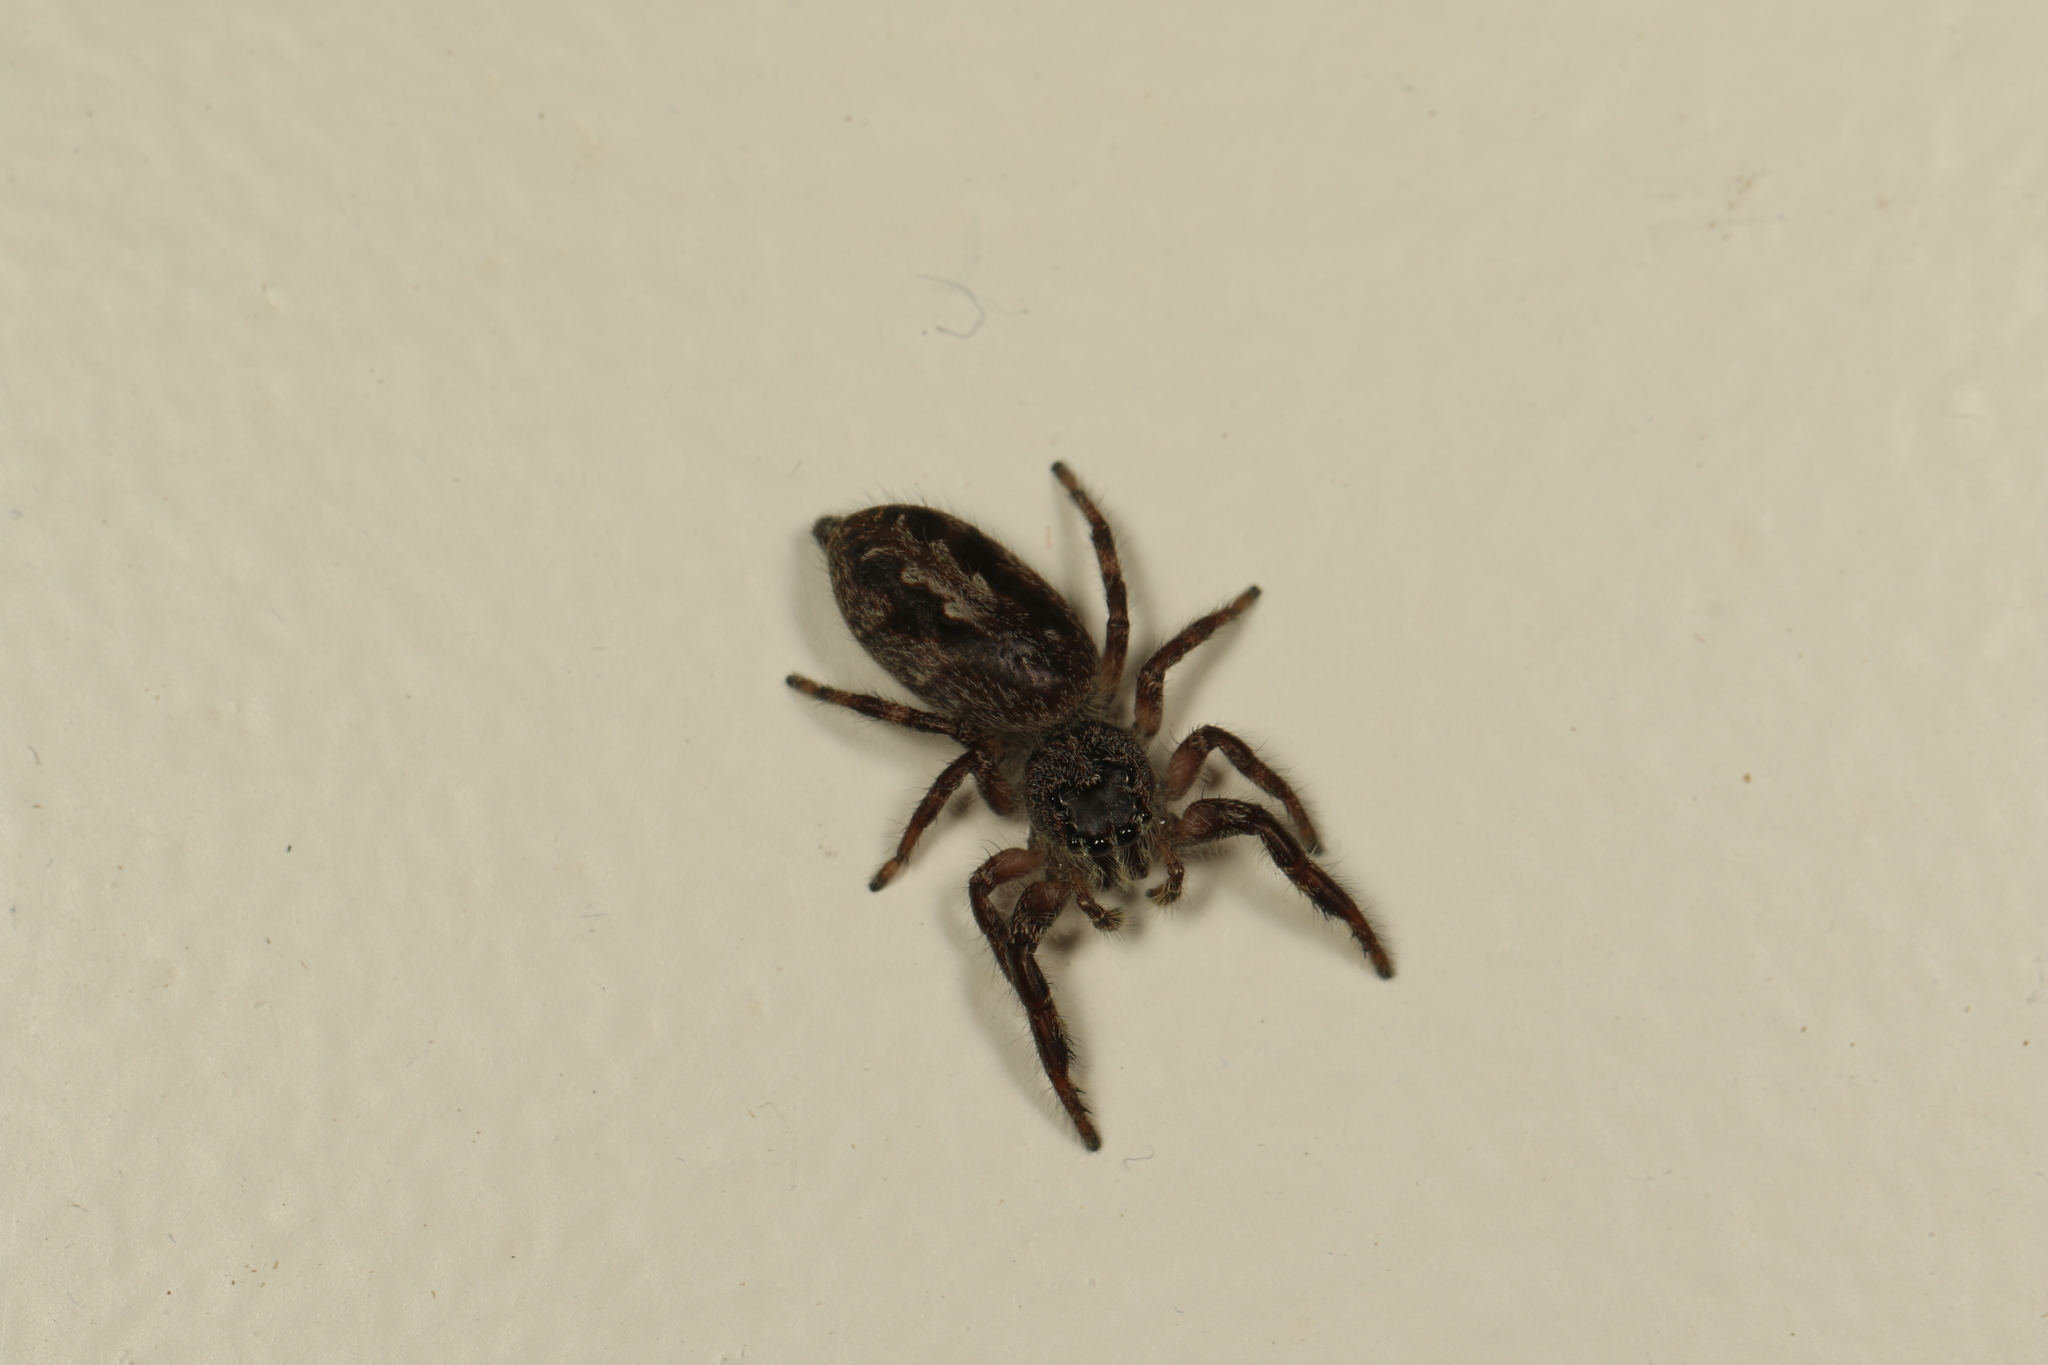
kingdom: Animalia
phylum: Arthropoda
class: Arachnida
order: Araneae
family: Salticidae
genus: Sandalodes
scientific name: Sandalodes superbus
